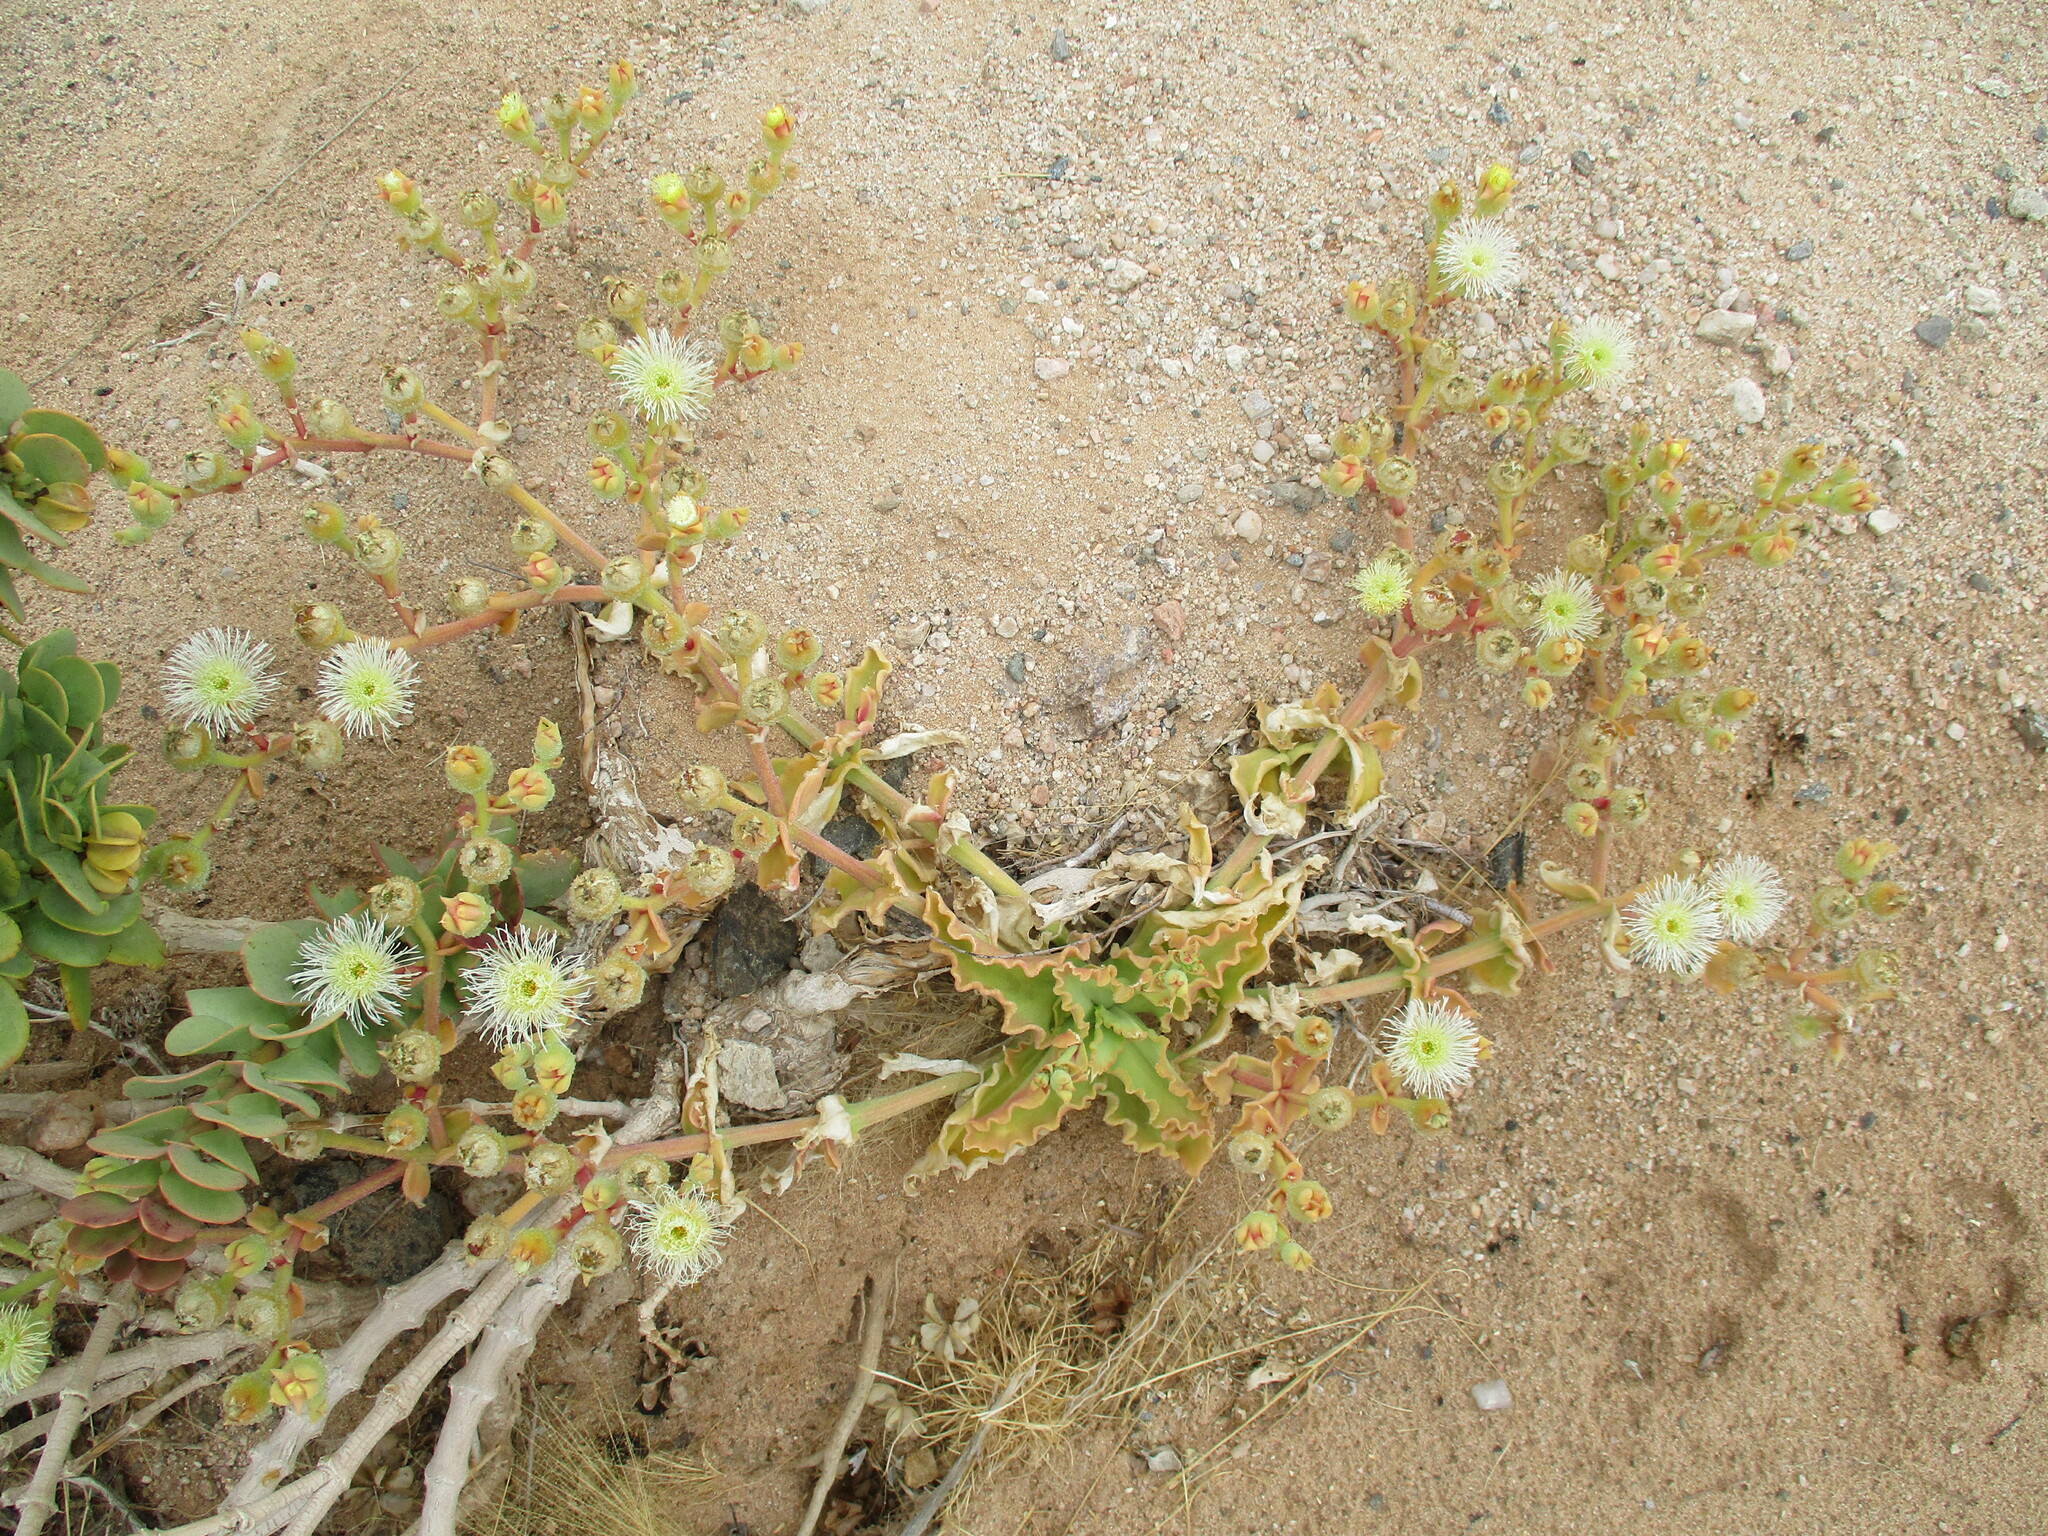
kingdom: Plantae
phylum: Tracheophyta
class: Magnoliopsida
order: Caryophyllales
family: Aizoaceae
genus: Mesembryanthemum
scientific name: Mesembryanthemum guerichianum
